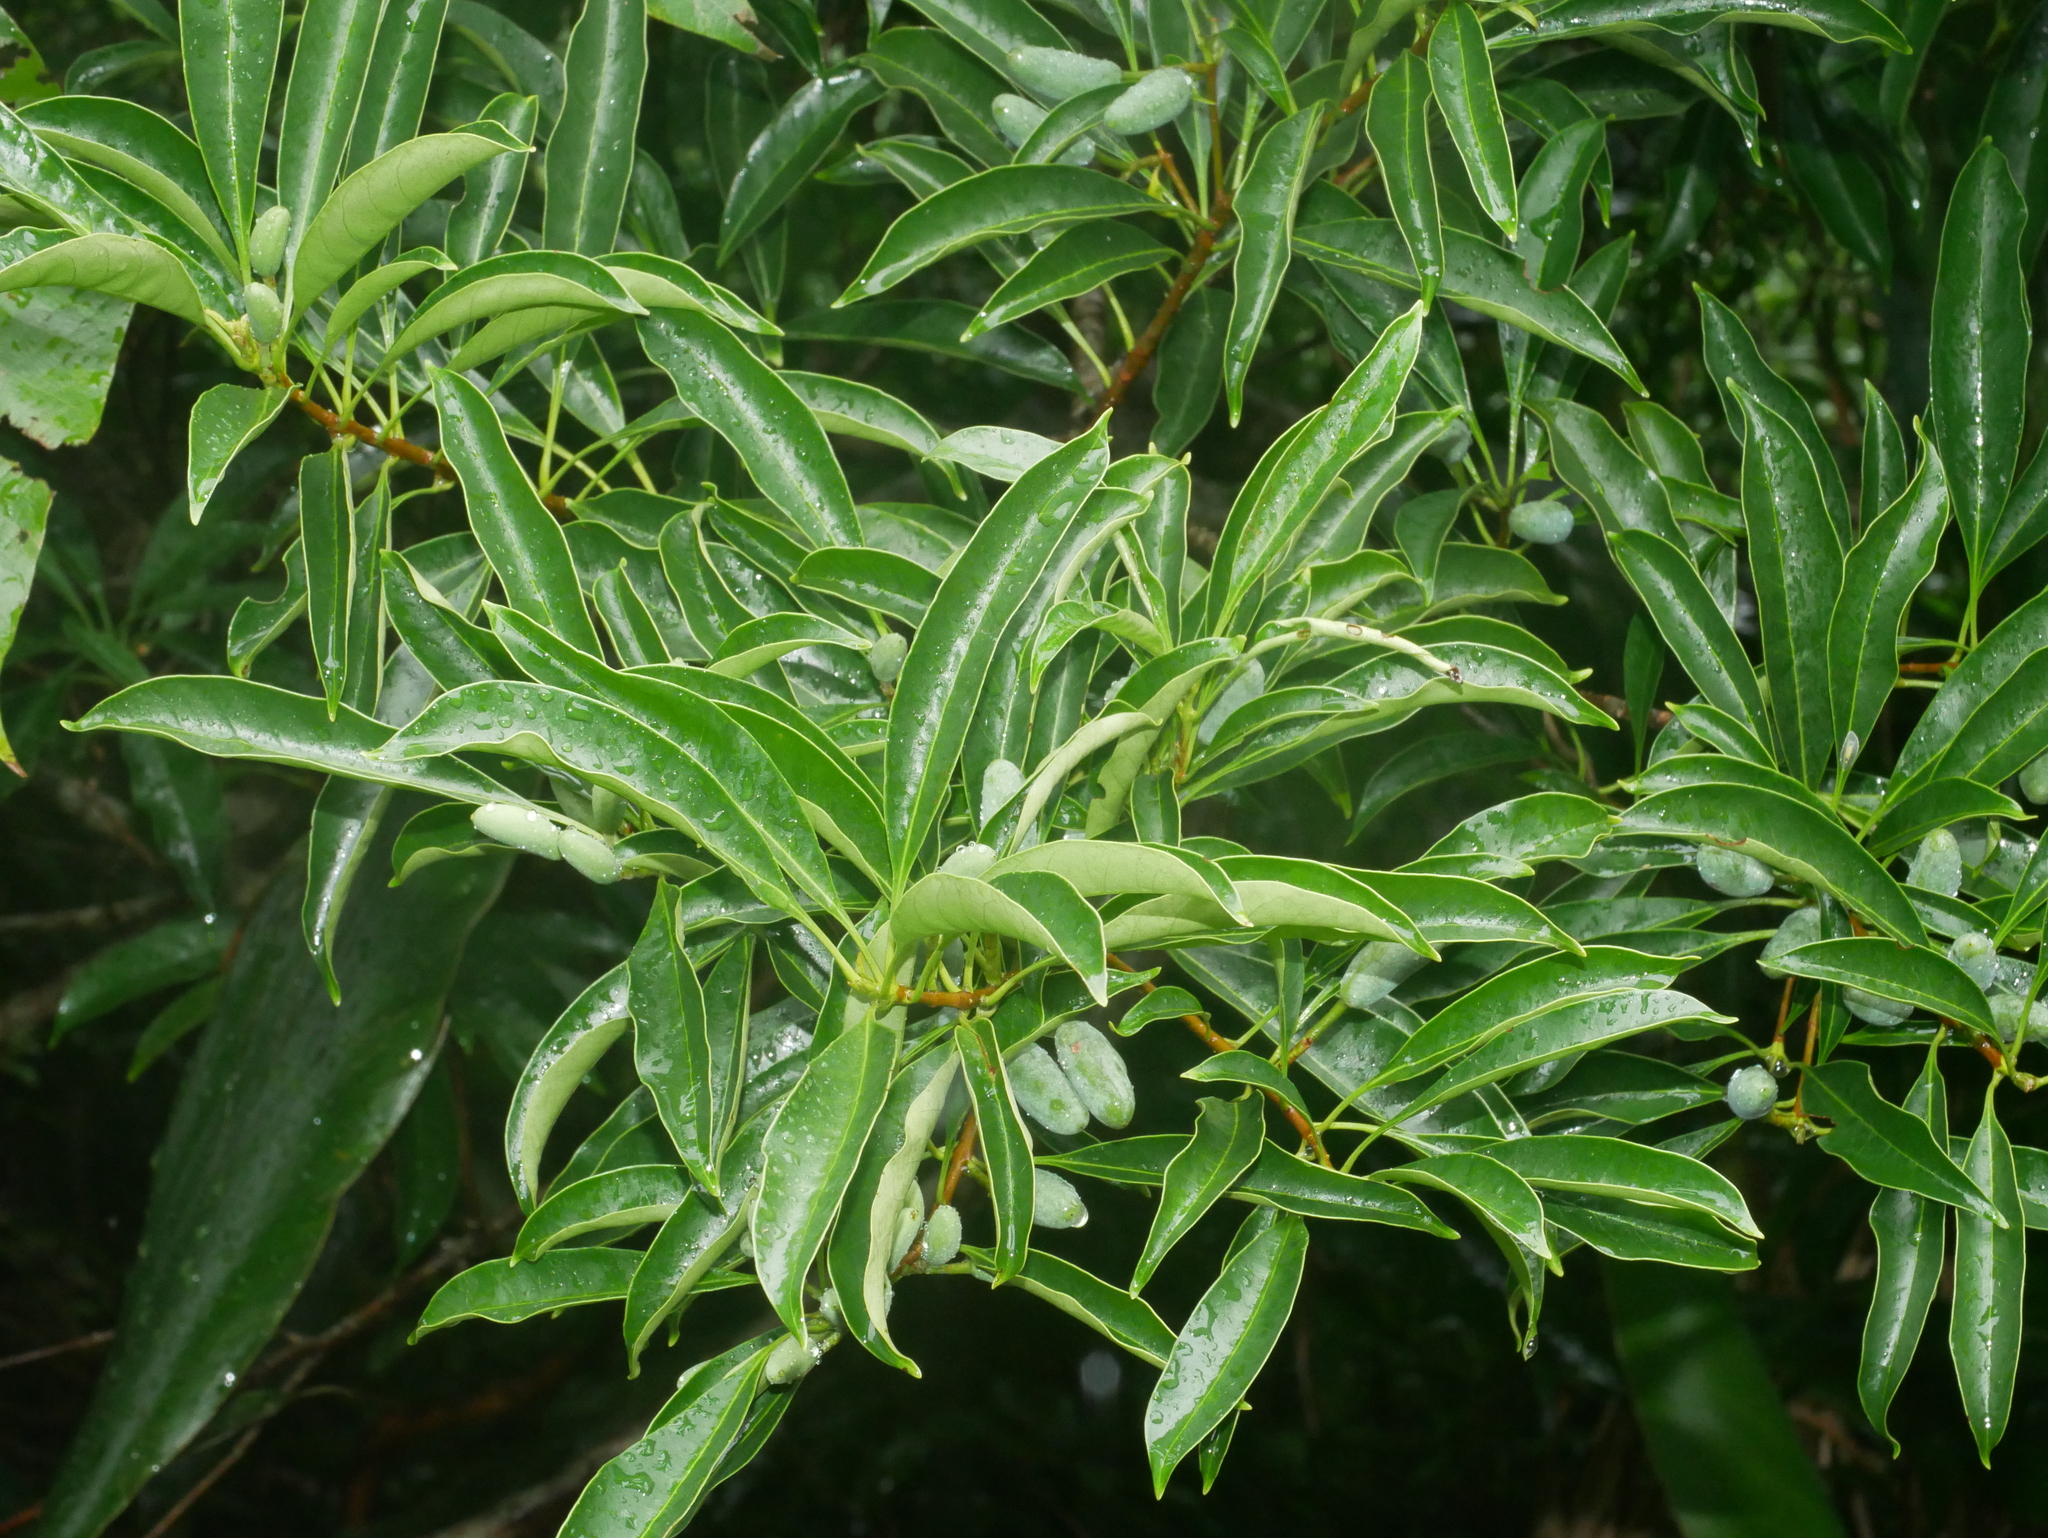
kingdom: Plantae
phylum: Tracheophyta
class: Magnoliopsida
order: Lamiales
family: Oleaceae
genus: Chengiodendron
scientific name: Chengiodendron matsumuranum
